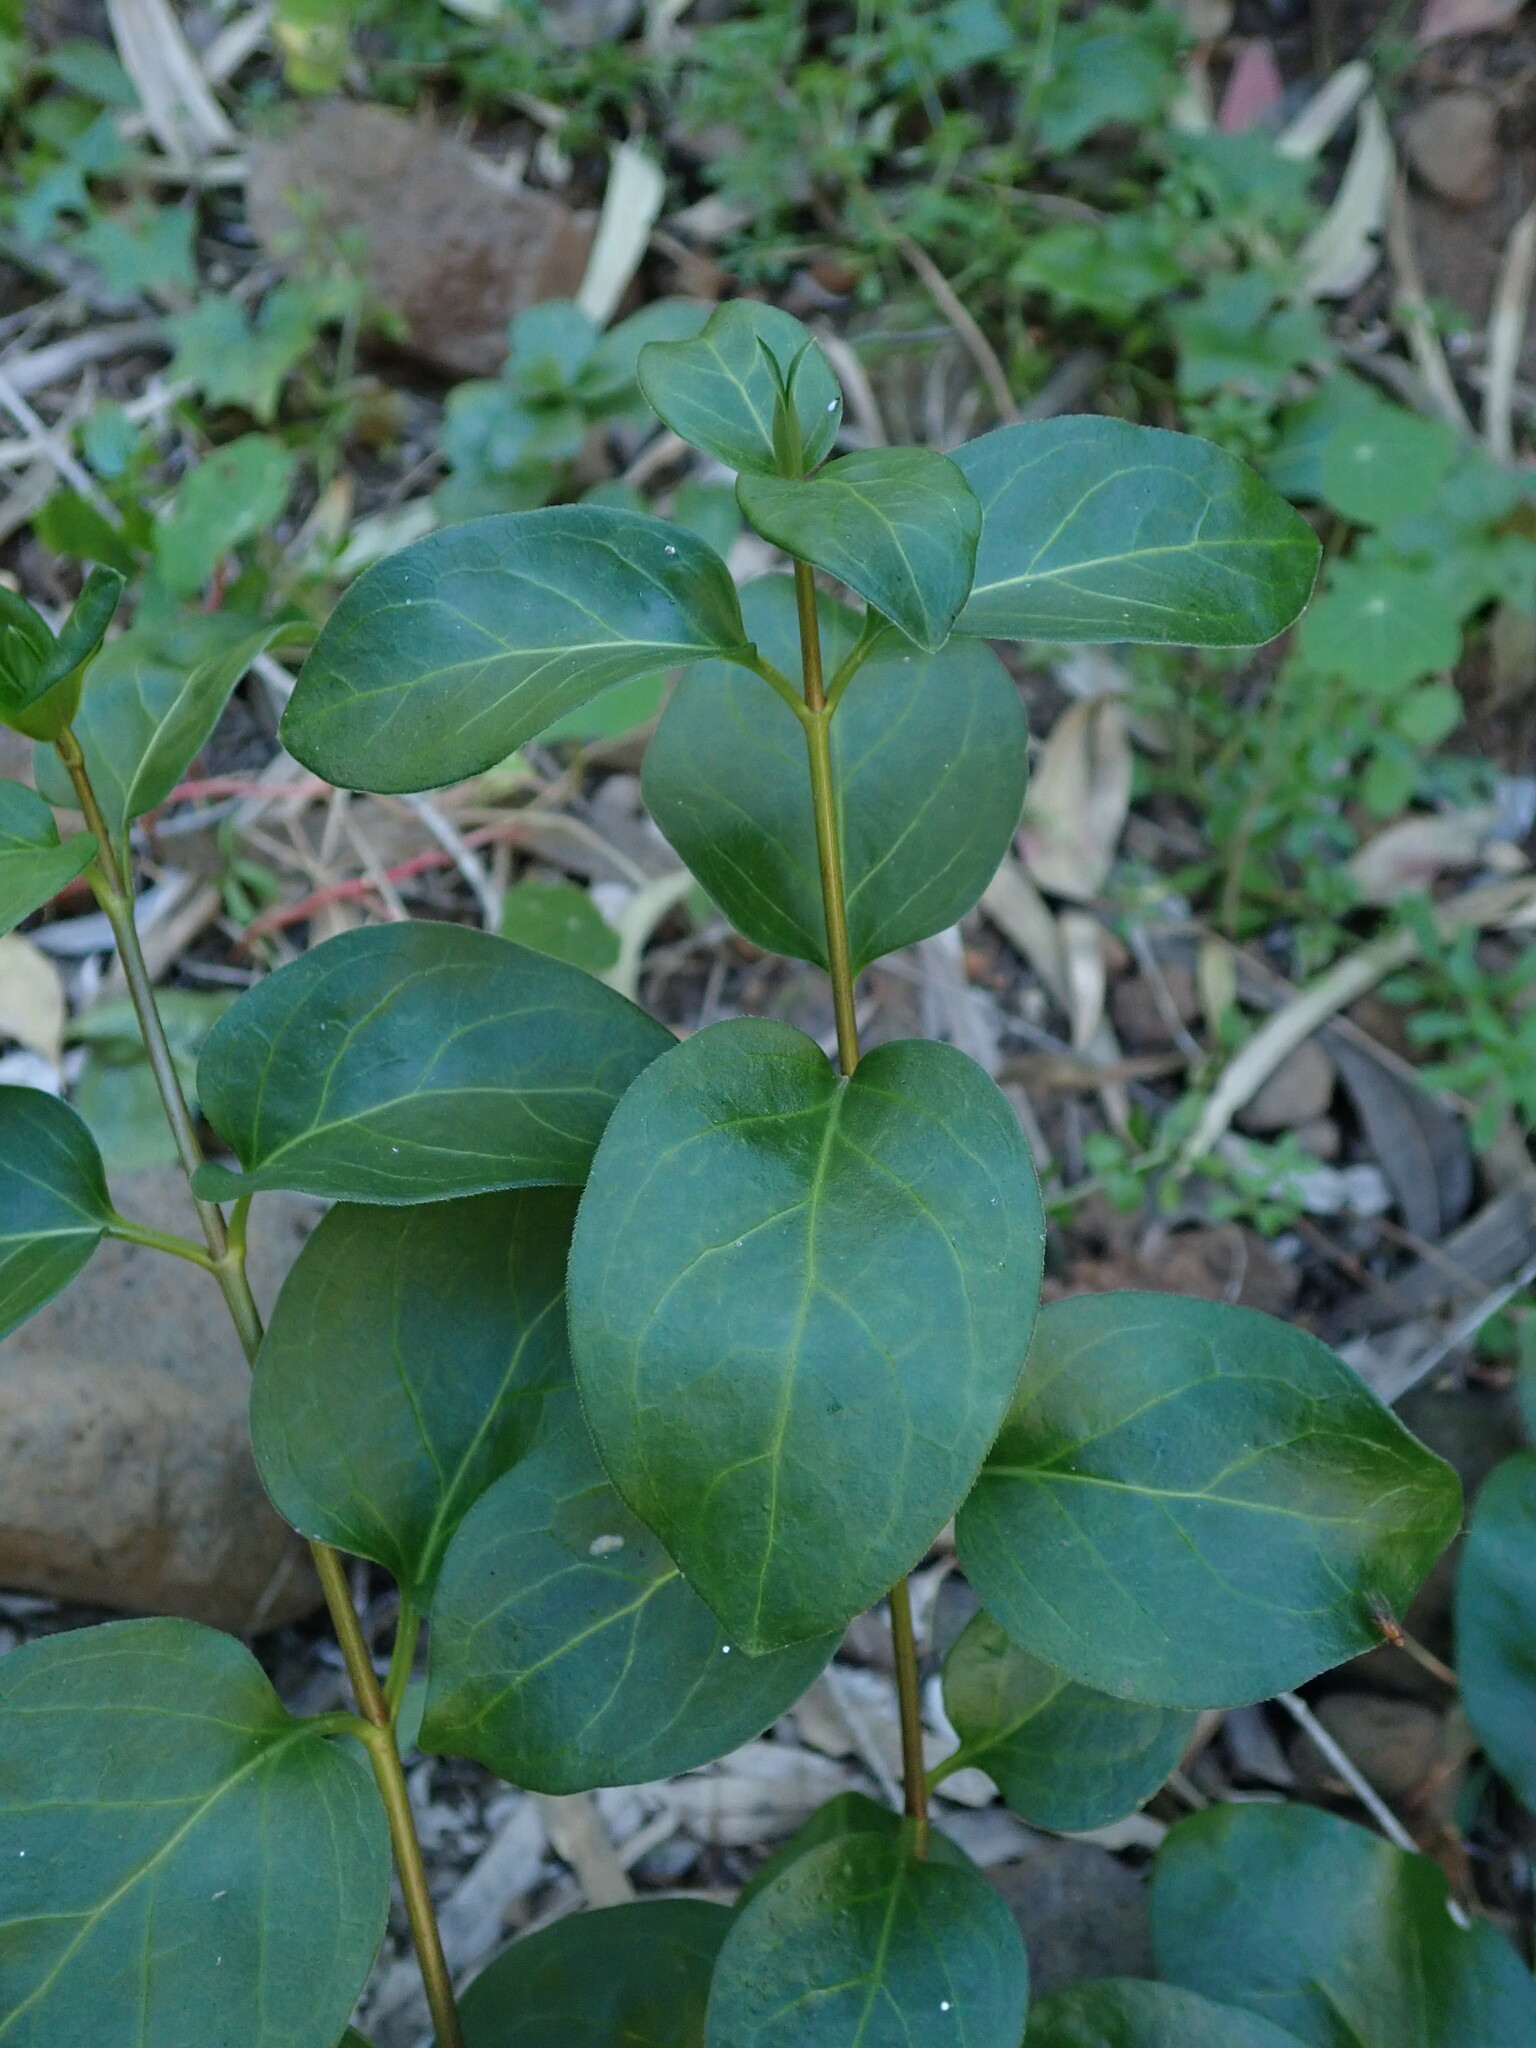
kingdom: Plantae
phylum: Tracheophyta
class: Magnoliopsida
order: Gentianales
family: Apocynaceae
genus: Vinca
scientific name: Vinca major
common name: Greater periwinkle
